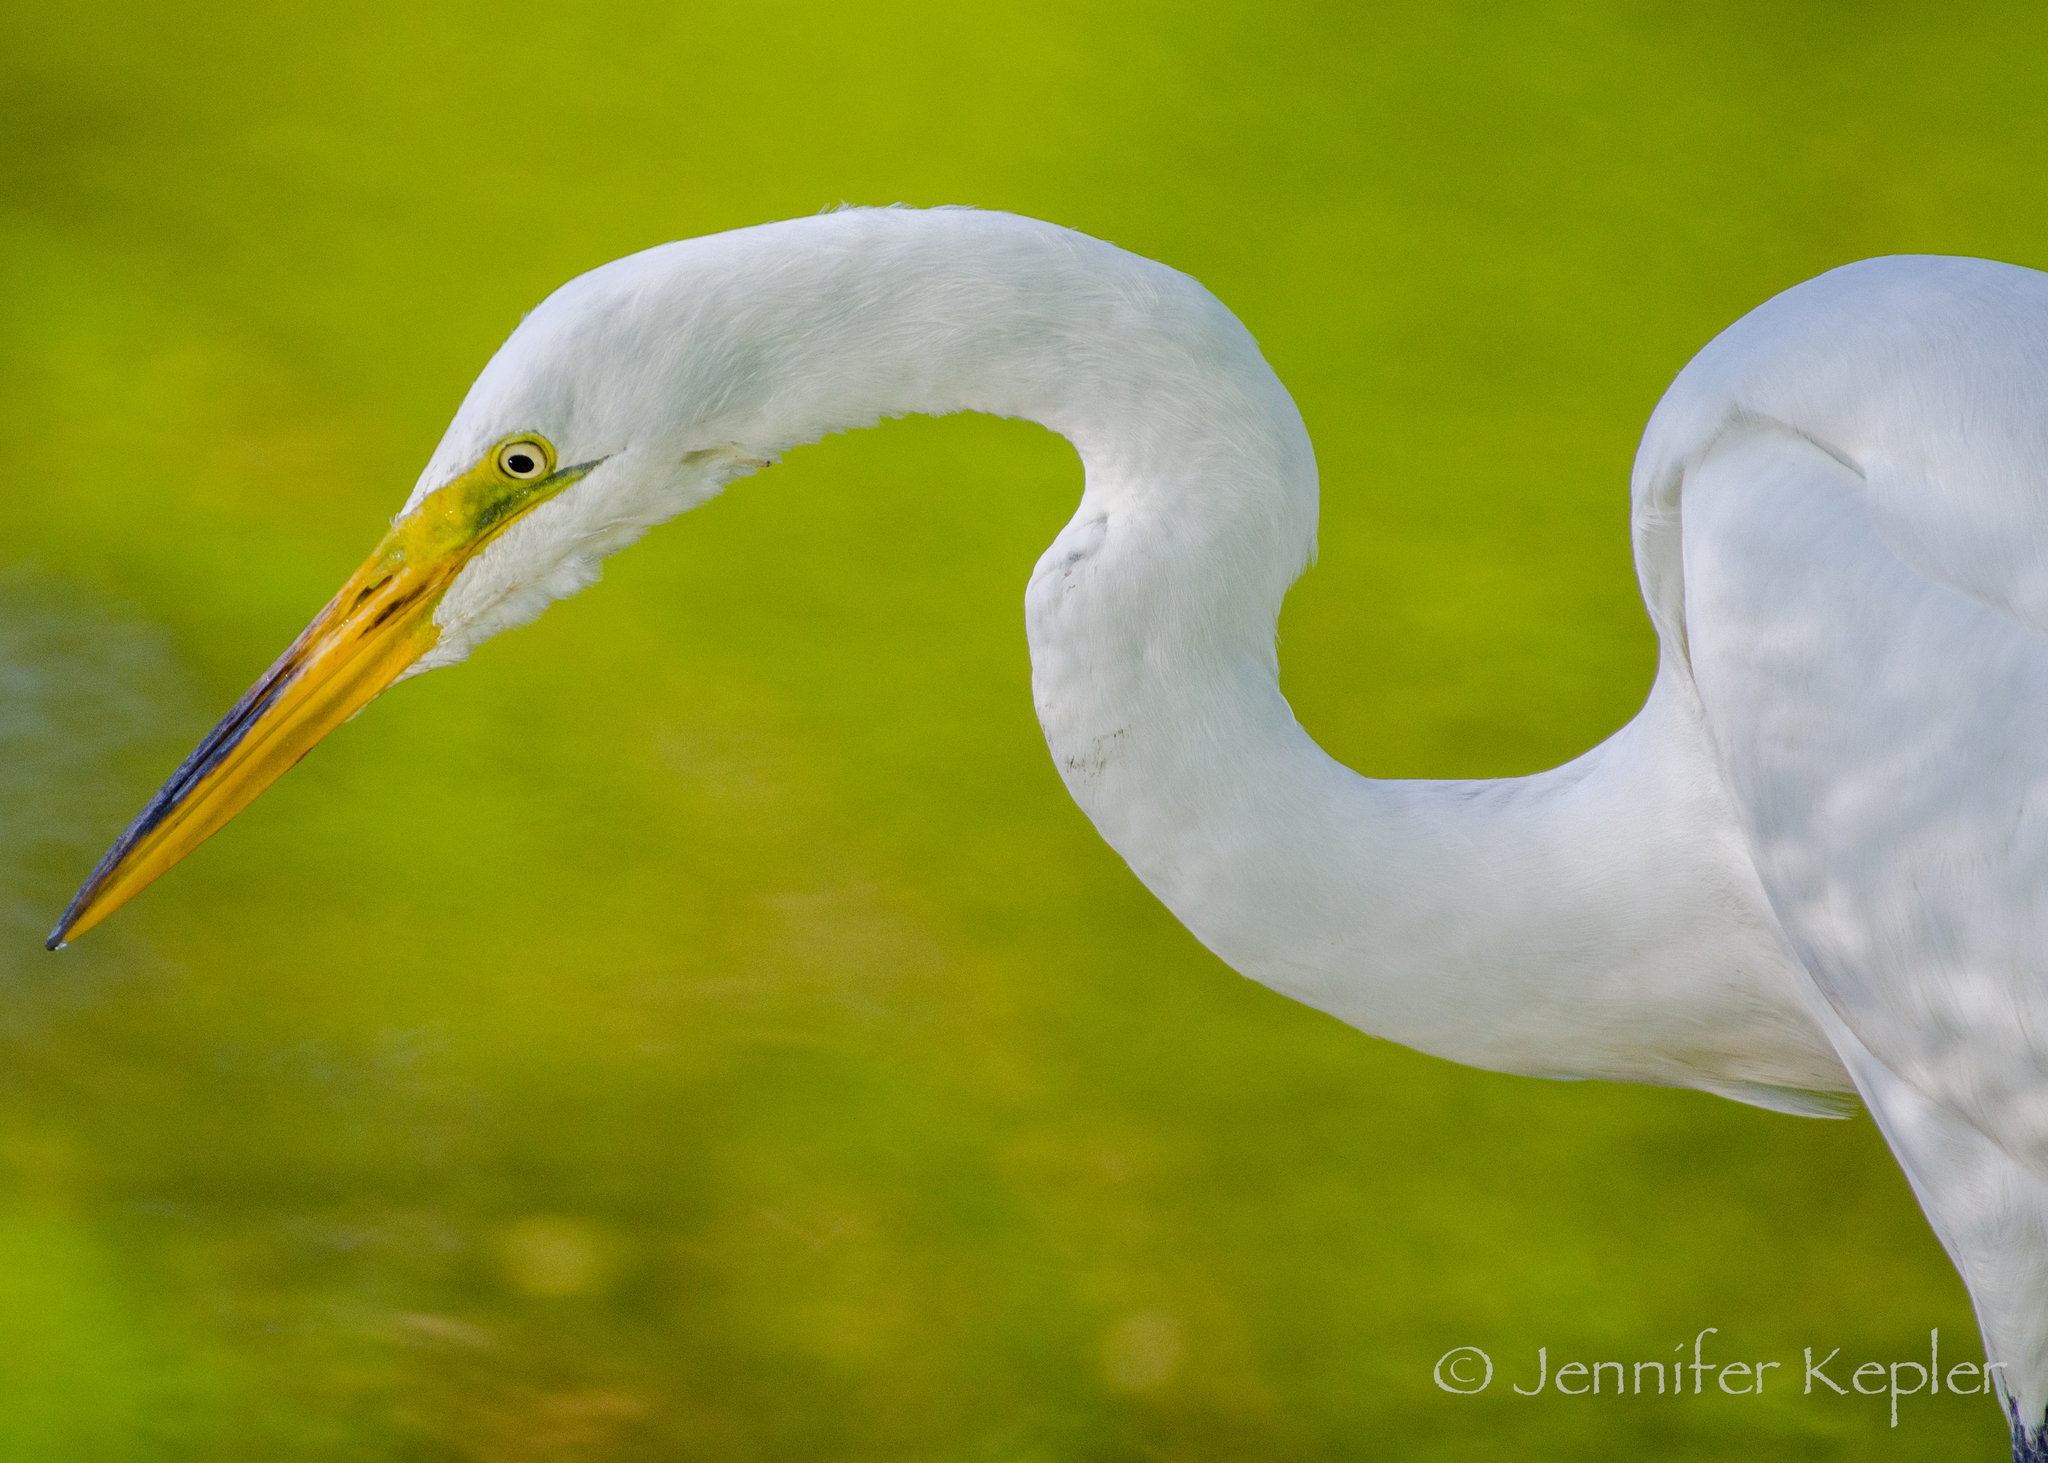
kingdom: Animalia
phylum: Chordata
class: Aves
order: Pelecaniformes
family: Ardeidae
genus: Ardea
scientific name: Ardea alba
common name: Great egret
